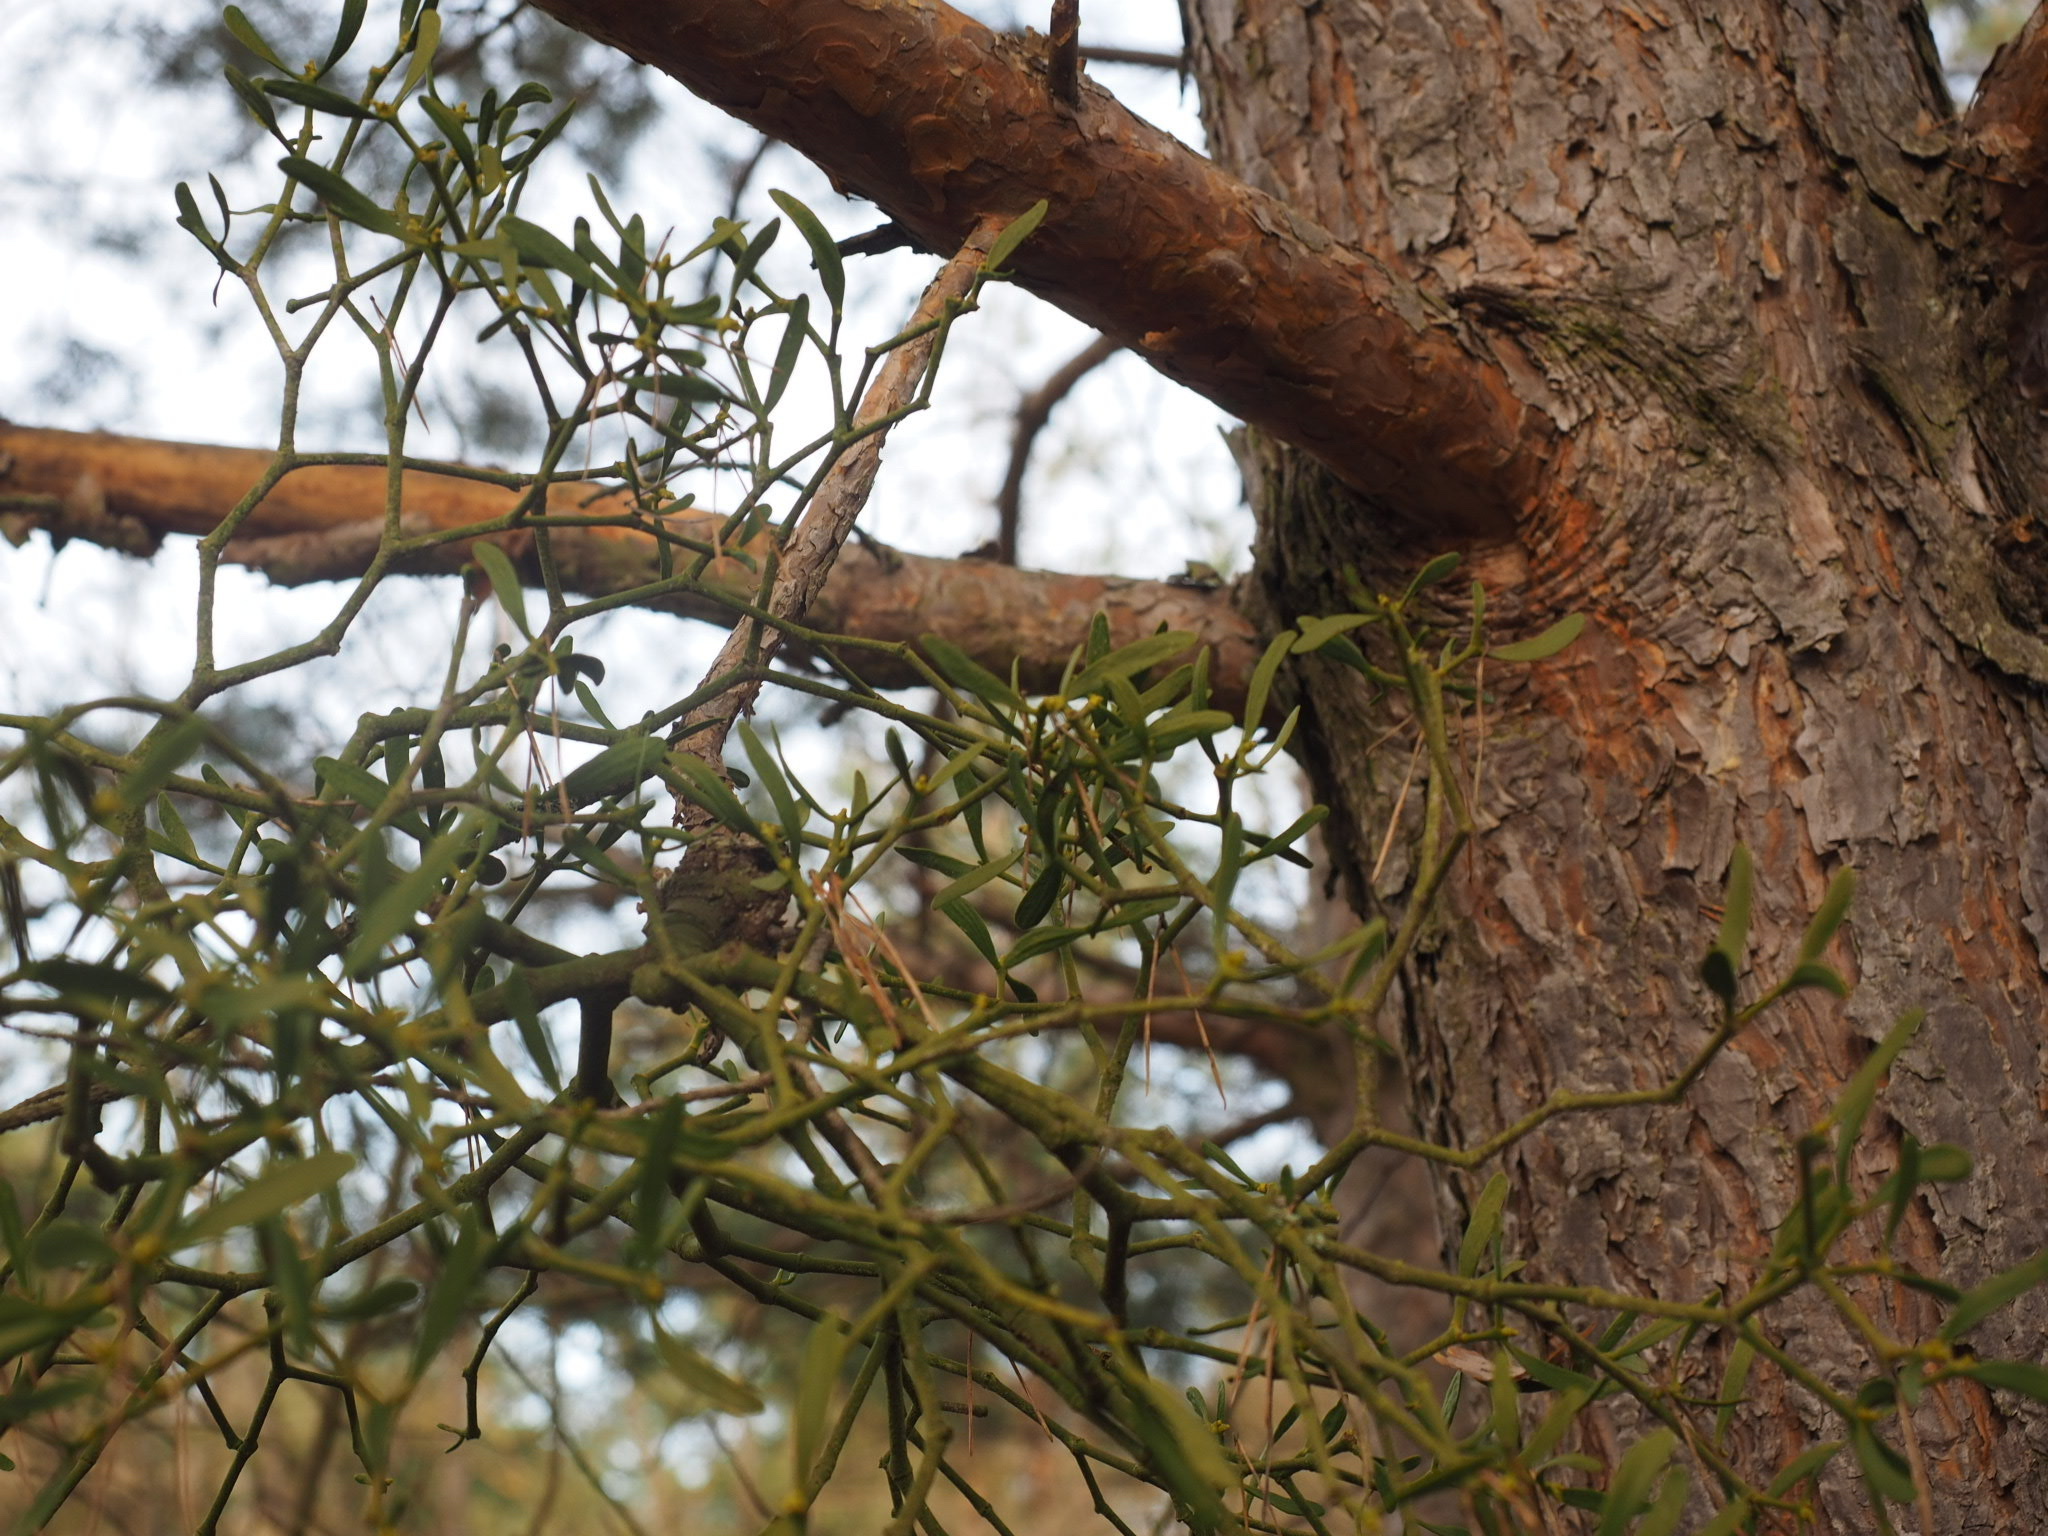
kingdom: Plantae
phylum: Tracheophyta
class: Magnoliopsida
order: Santalales
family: Viscaceae
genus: Viscum
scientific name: Viscum laxum
